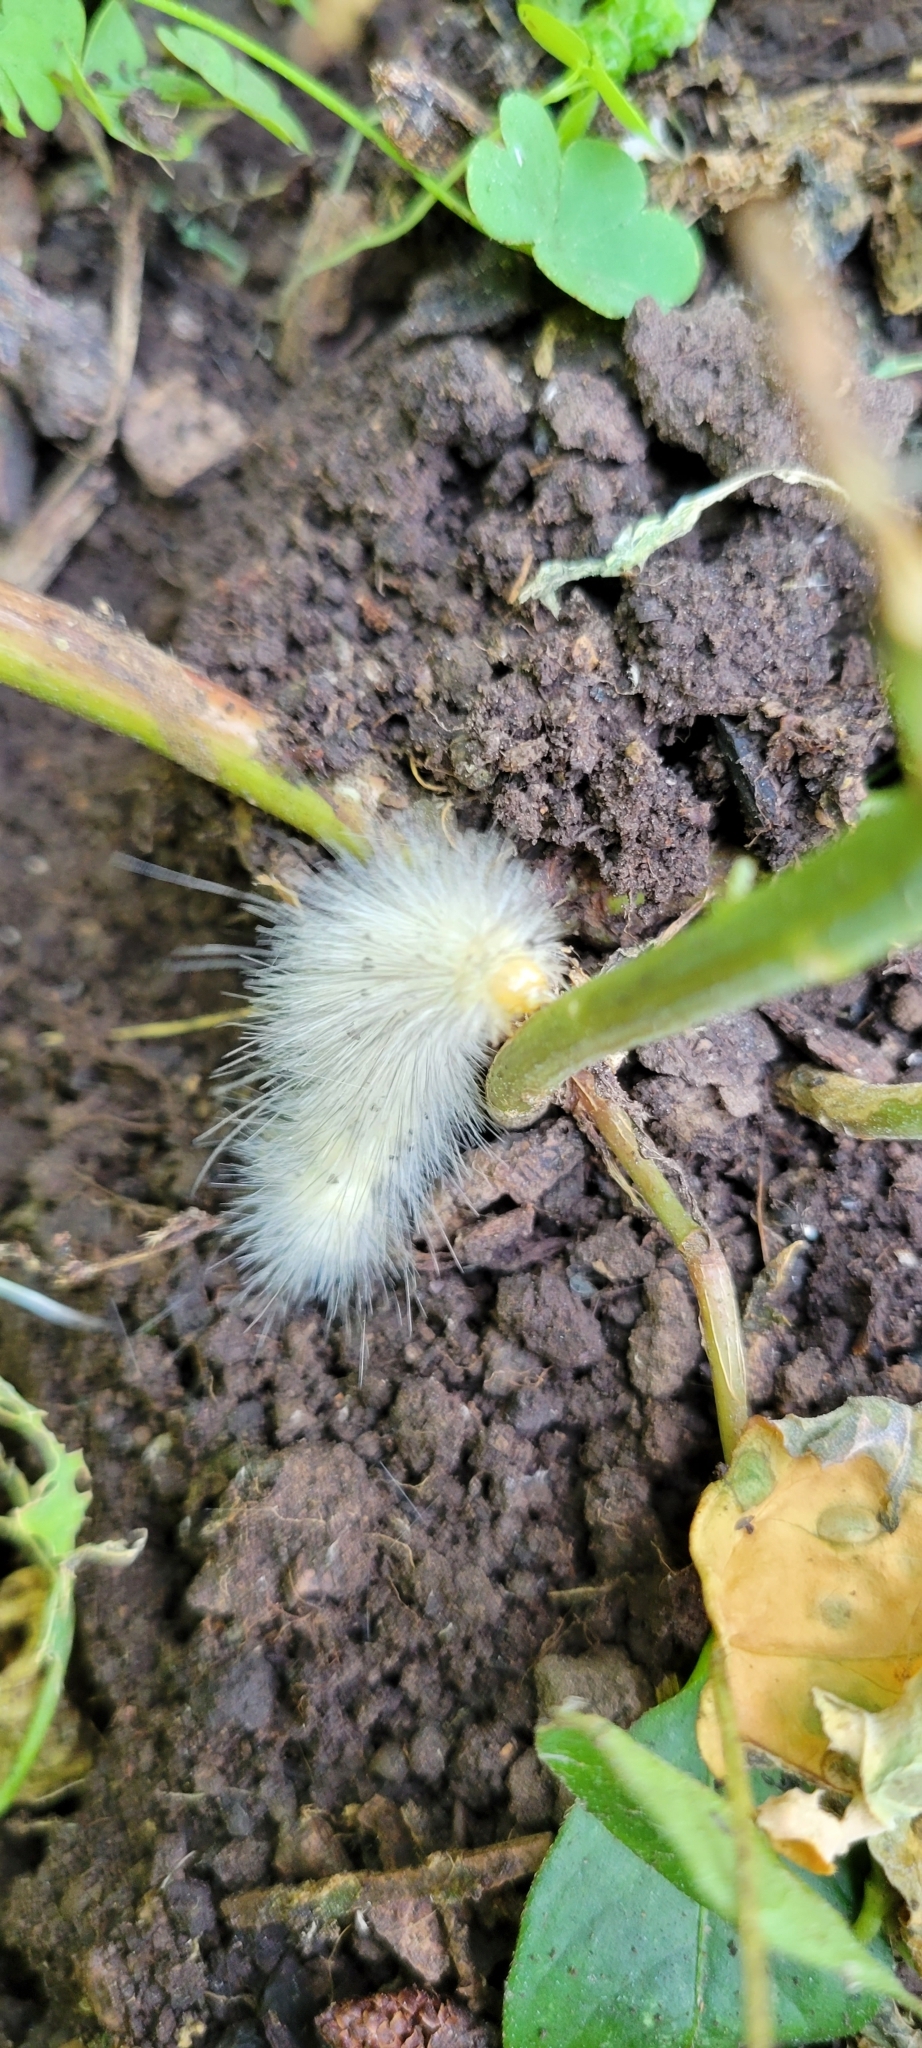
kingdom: Animalia
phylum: Arthropoda
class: Insecta
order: Lepidoptera
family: Erebidae
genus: Spilosoma
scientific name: Spilosoma virginica
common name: Virginia tiger moth
